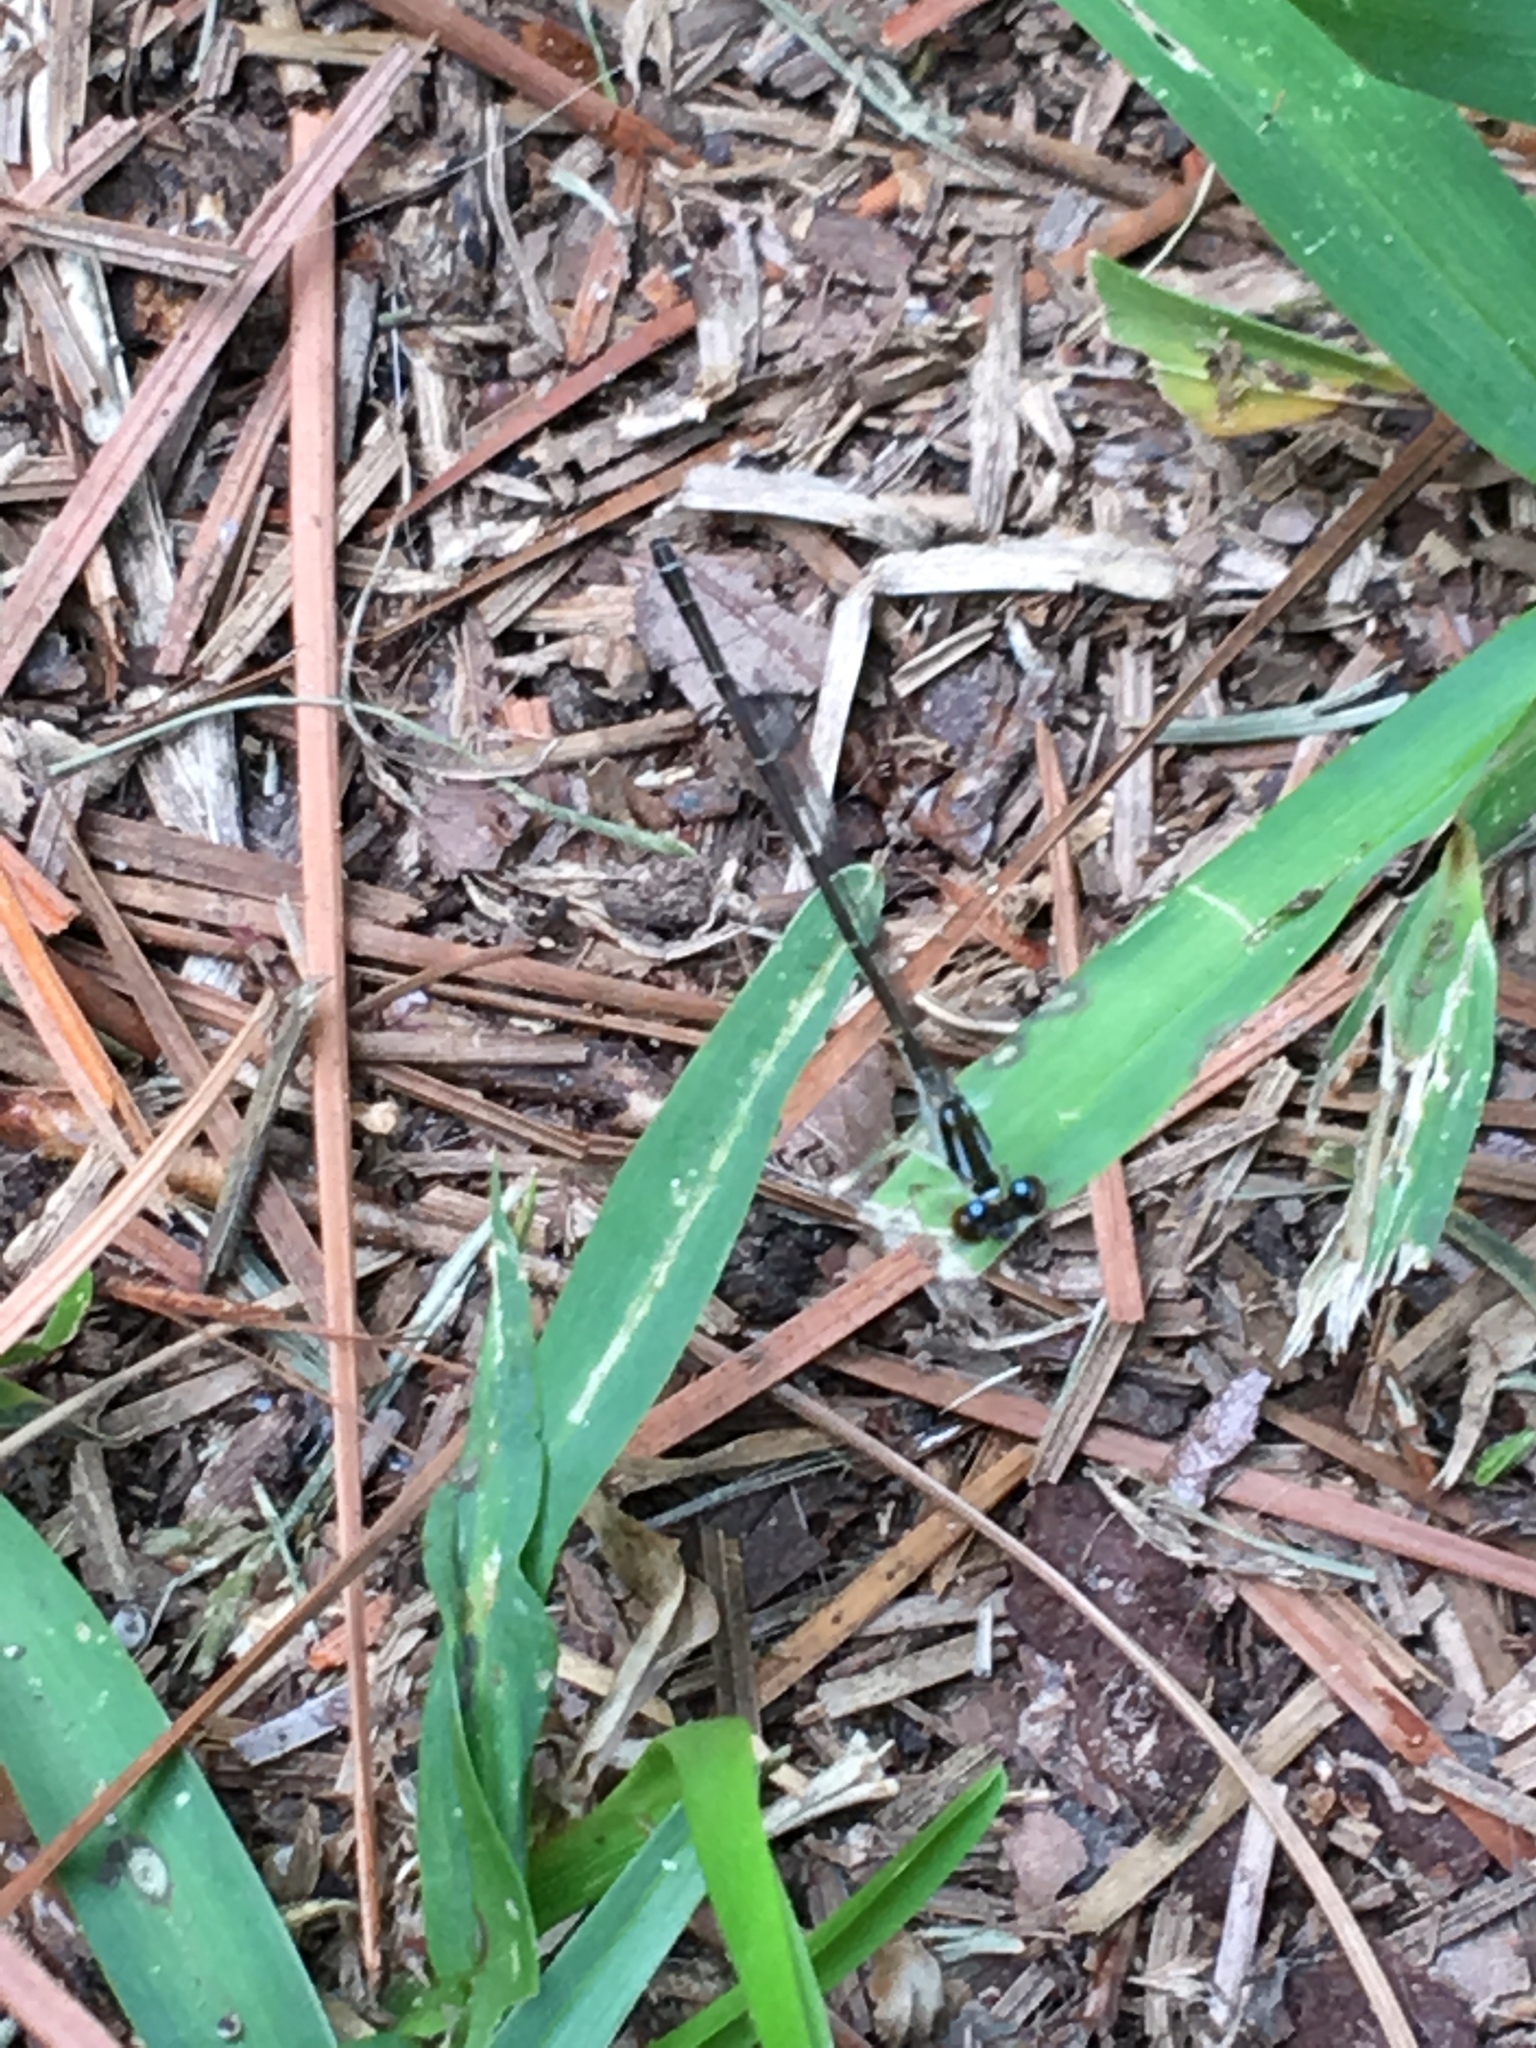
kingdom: Animalia
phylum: Arthropoda
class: Insecta
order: Odonata
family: Coenagrionidae
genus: Ischnura
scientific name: Ischnura posita
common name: Fragile forktail
